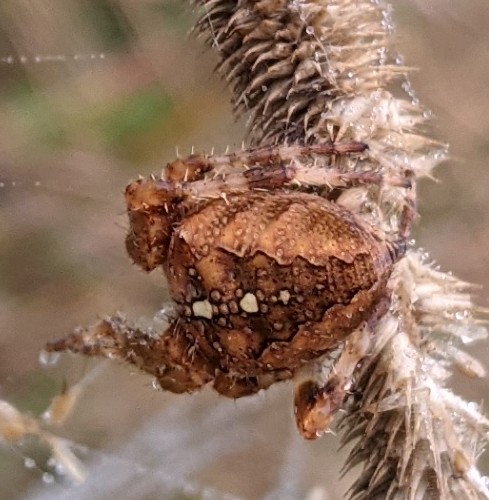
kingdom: Animalia
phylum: Arthropoda
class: Arachnida
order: Araneae
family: Araneidae
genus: Araneus
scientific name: Araneus diadematus
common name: Cross orbweaver
